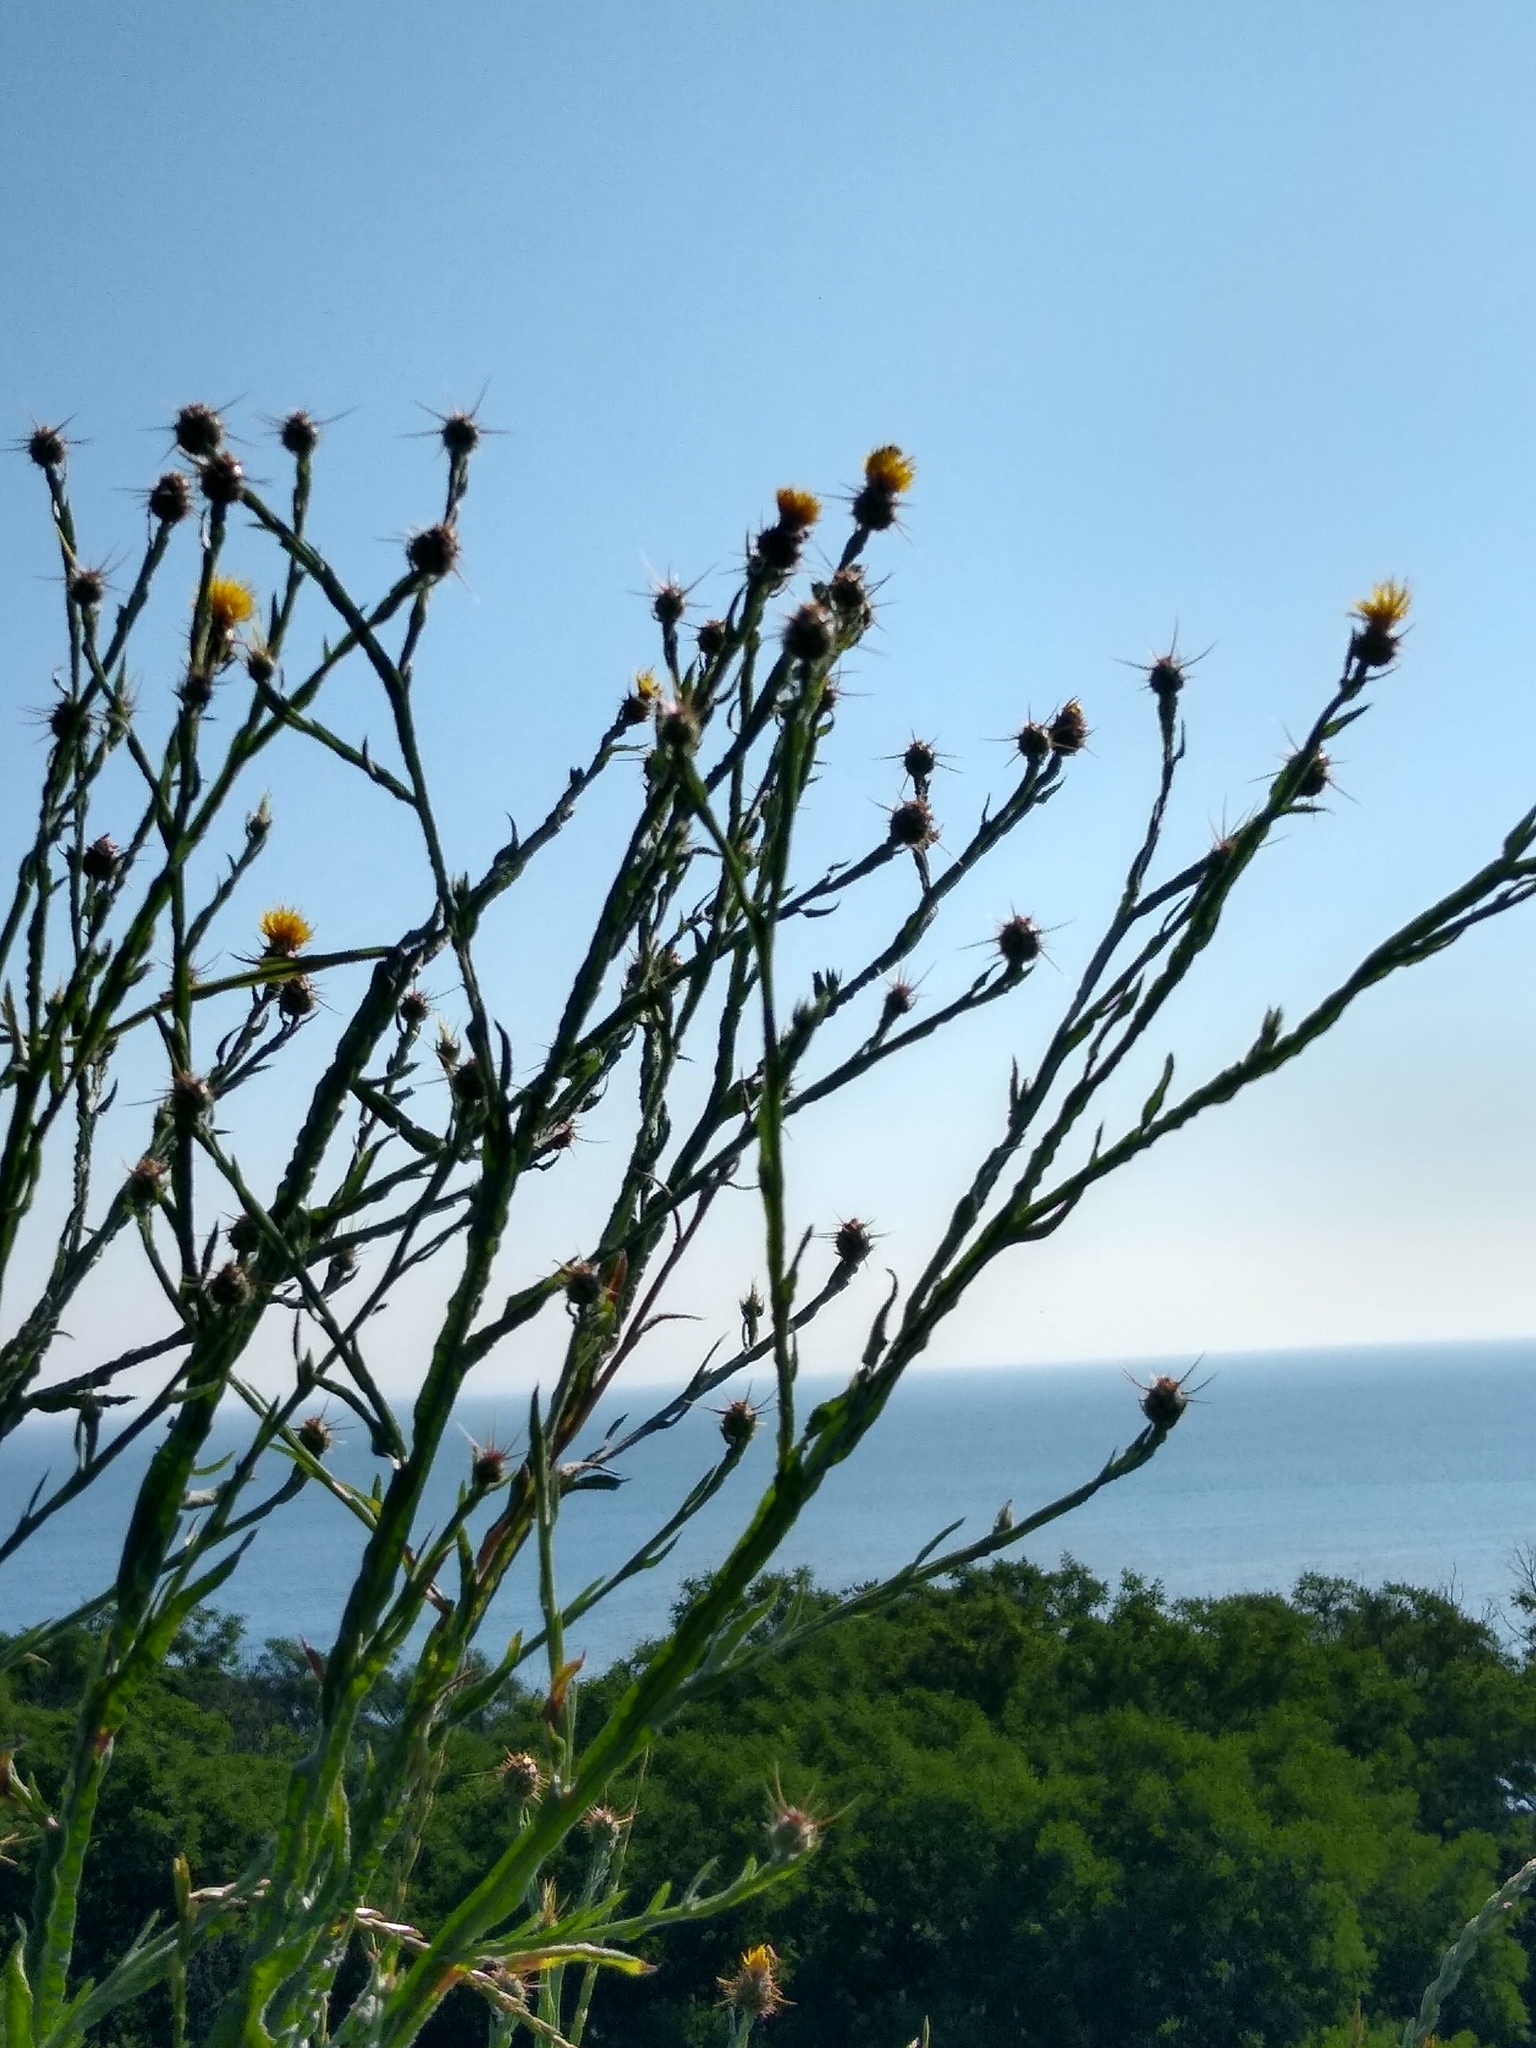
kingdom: Plantae
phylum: Tracheophyta
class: Magnoliopsida
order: Asterales
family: Asteraceae
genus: Centaurea
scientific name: Centaurea solstitialis
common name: Yellow star-thistle
